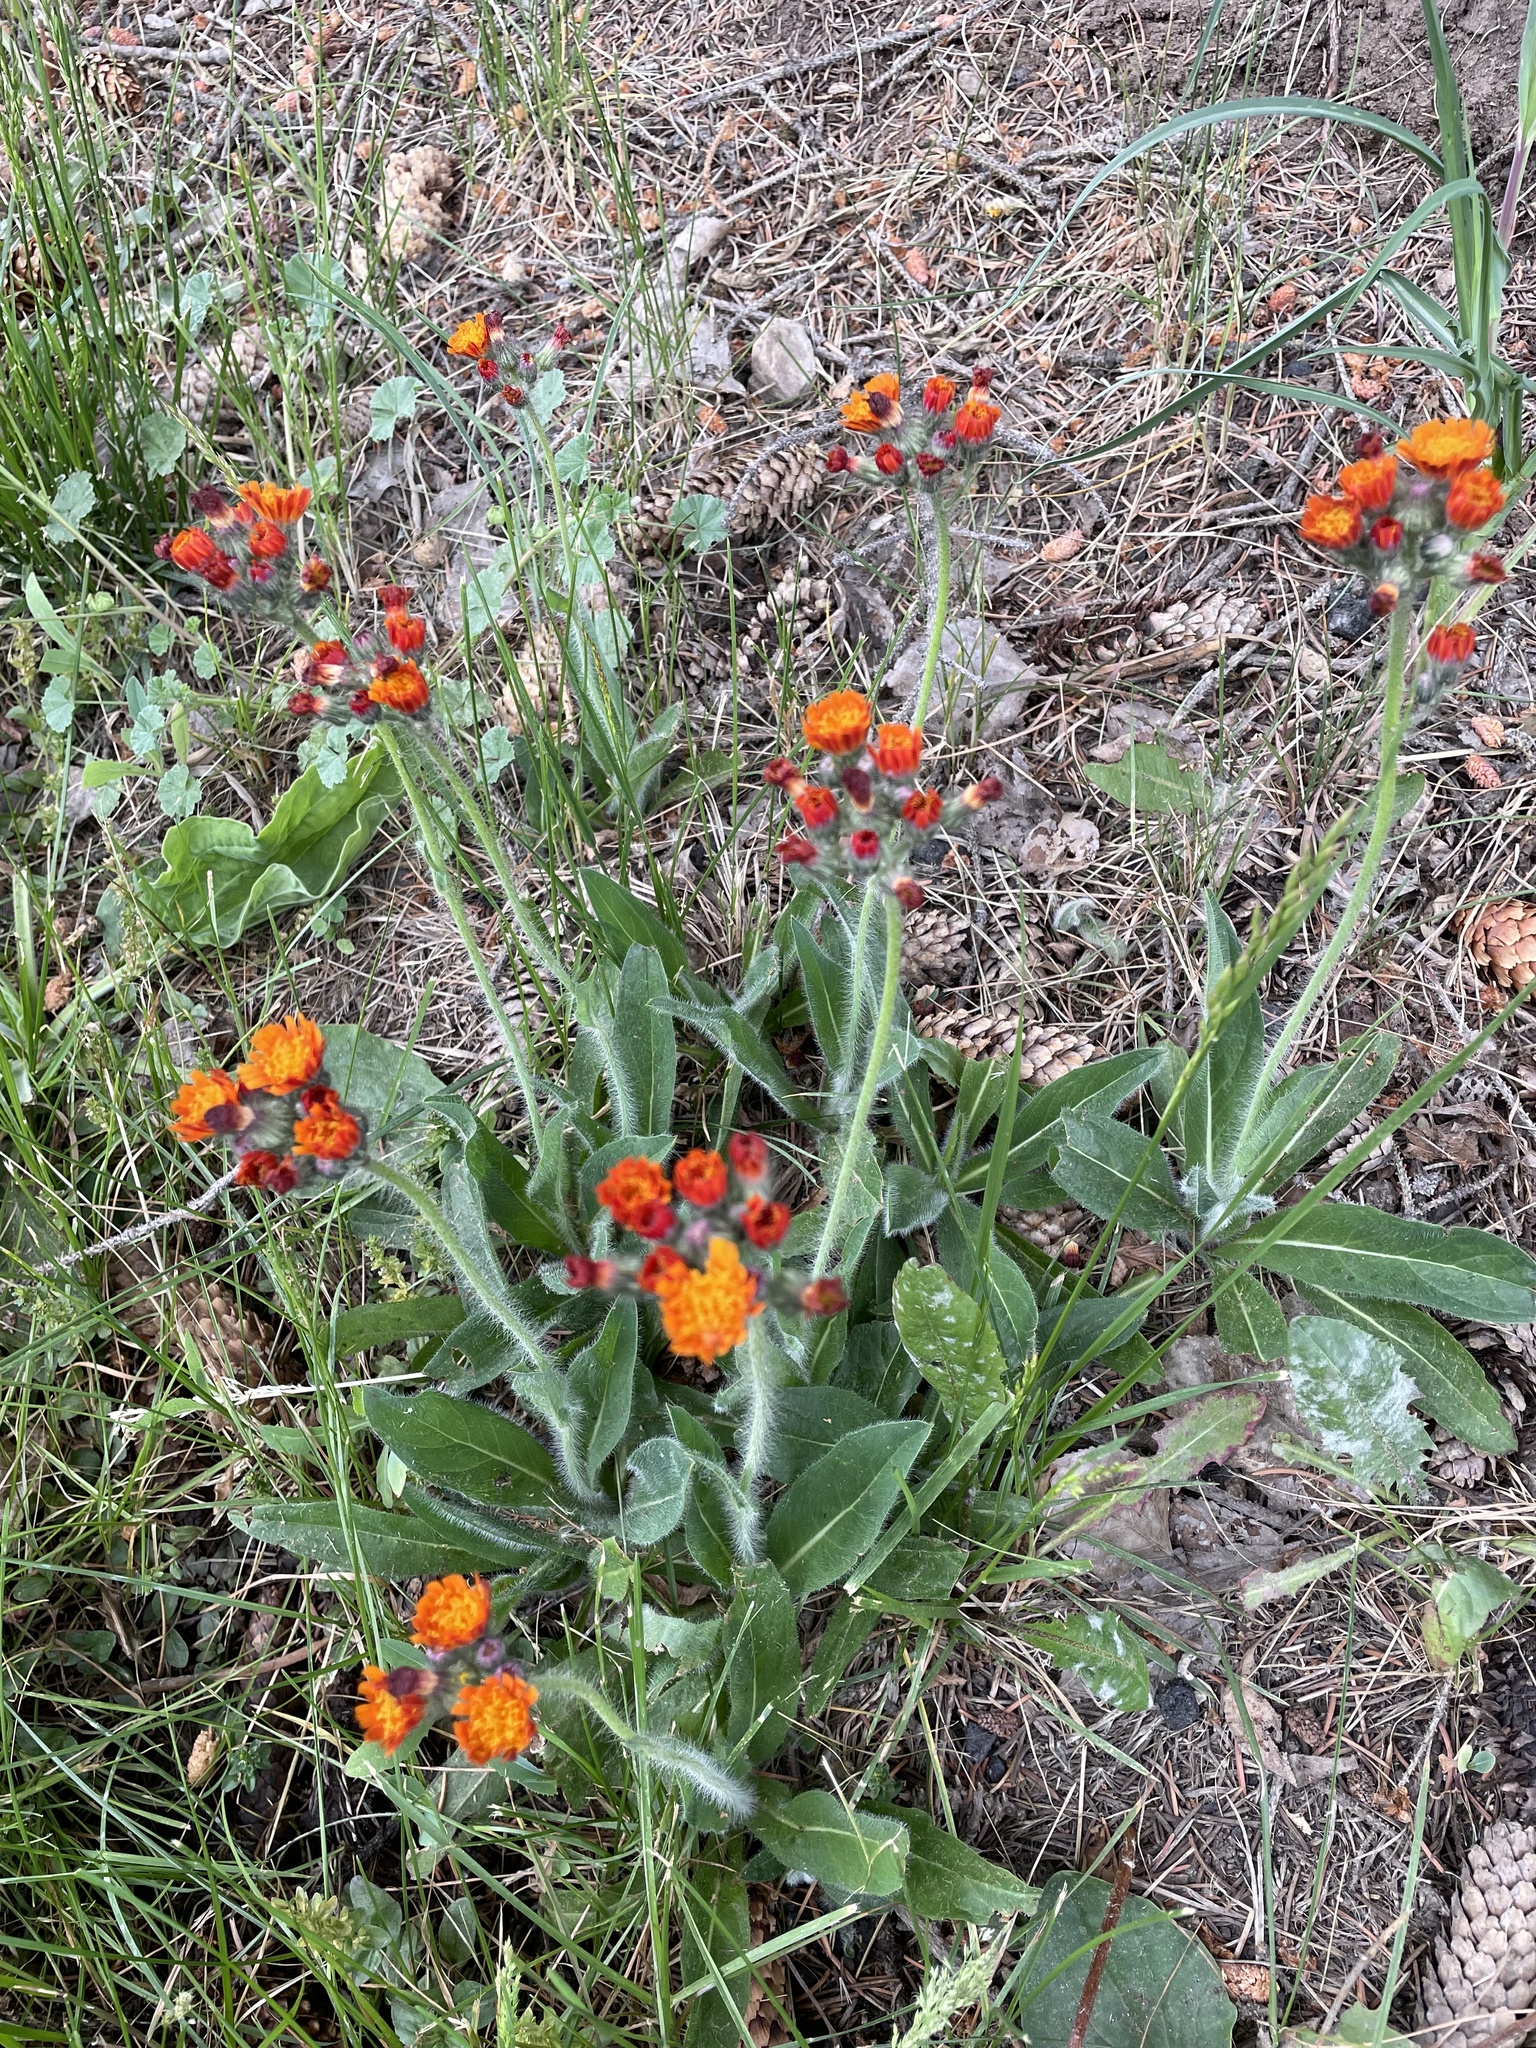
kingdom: Plantae
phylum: Tracheophyta
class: Magnoliopsida
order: Asterales
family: Asteraceae
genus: Pilosella
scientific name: Pilosella aurantiaca
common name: Fox-and-cubs
